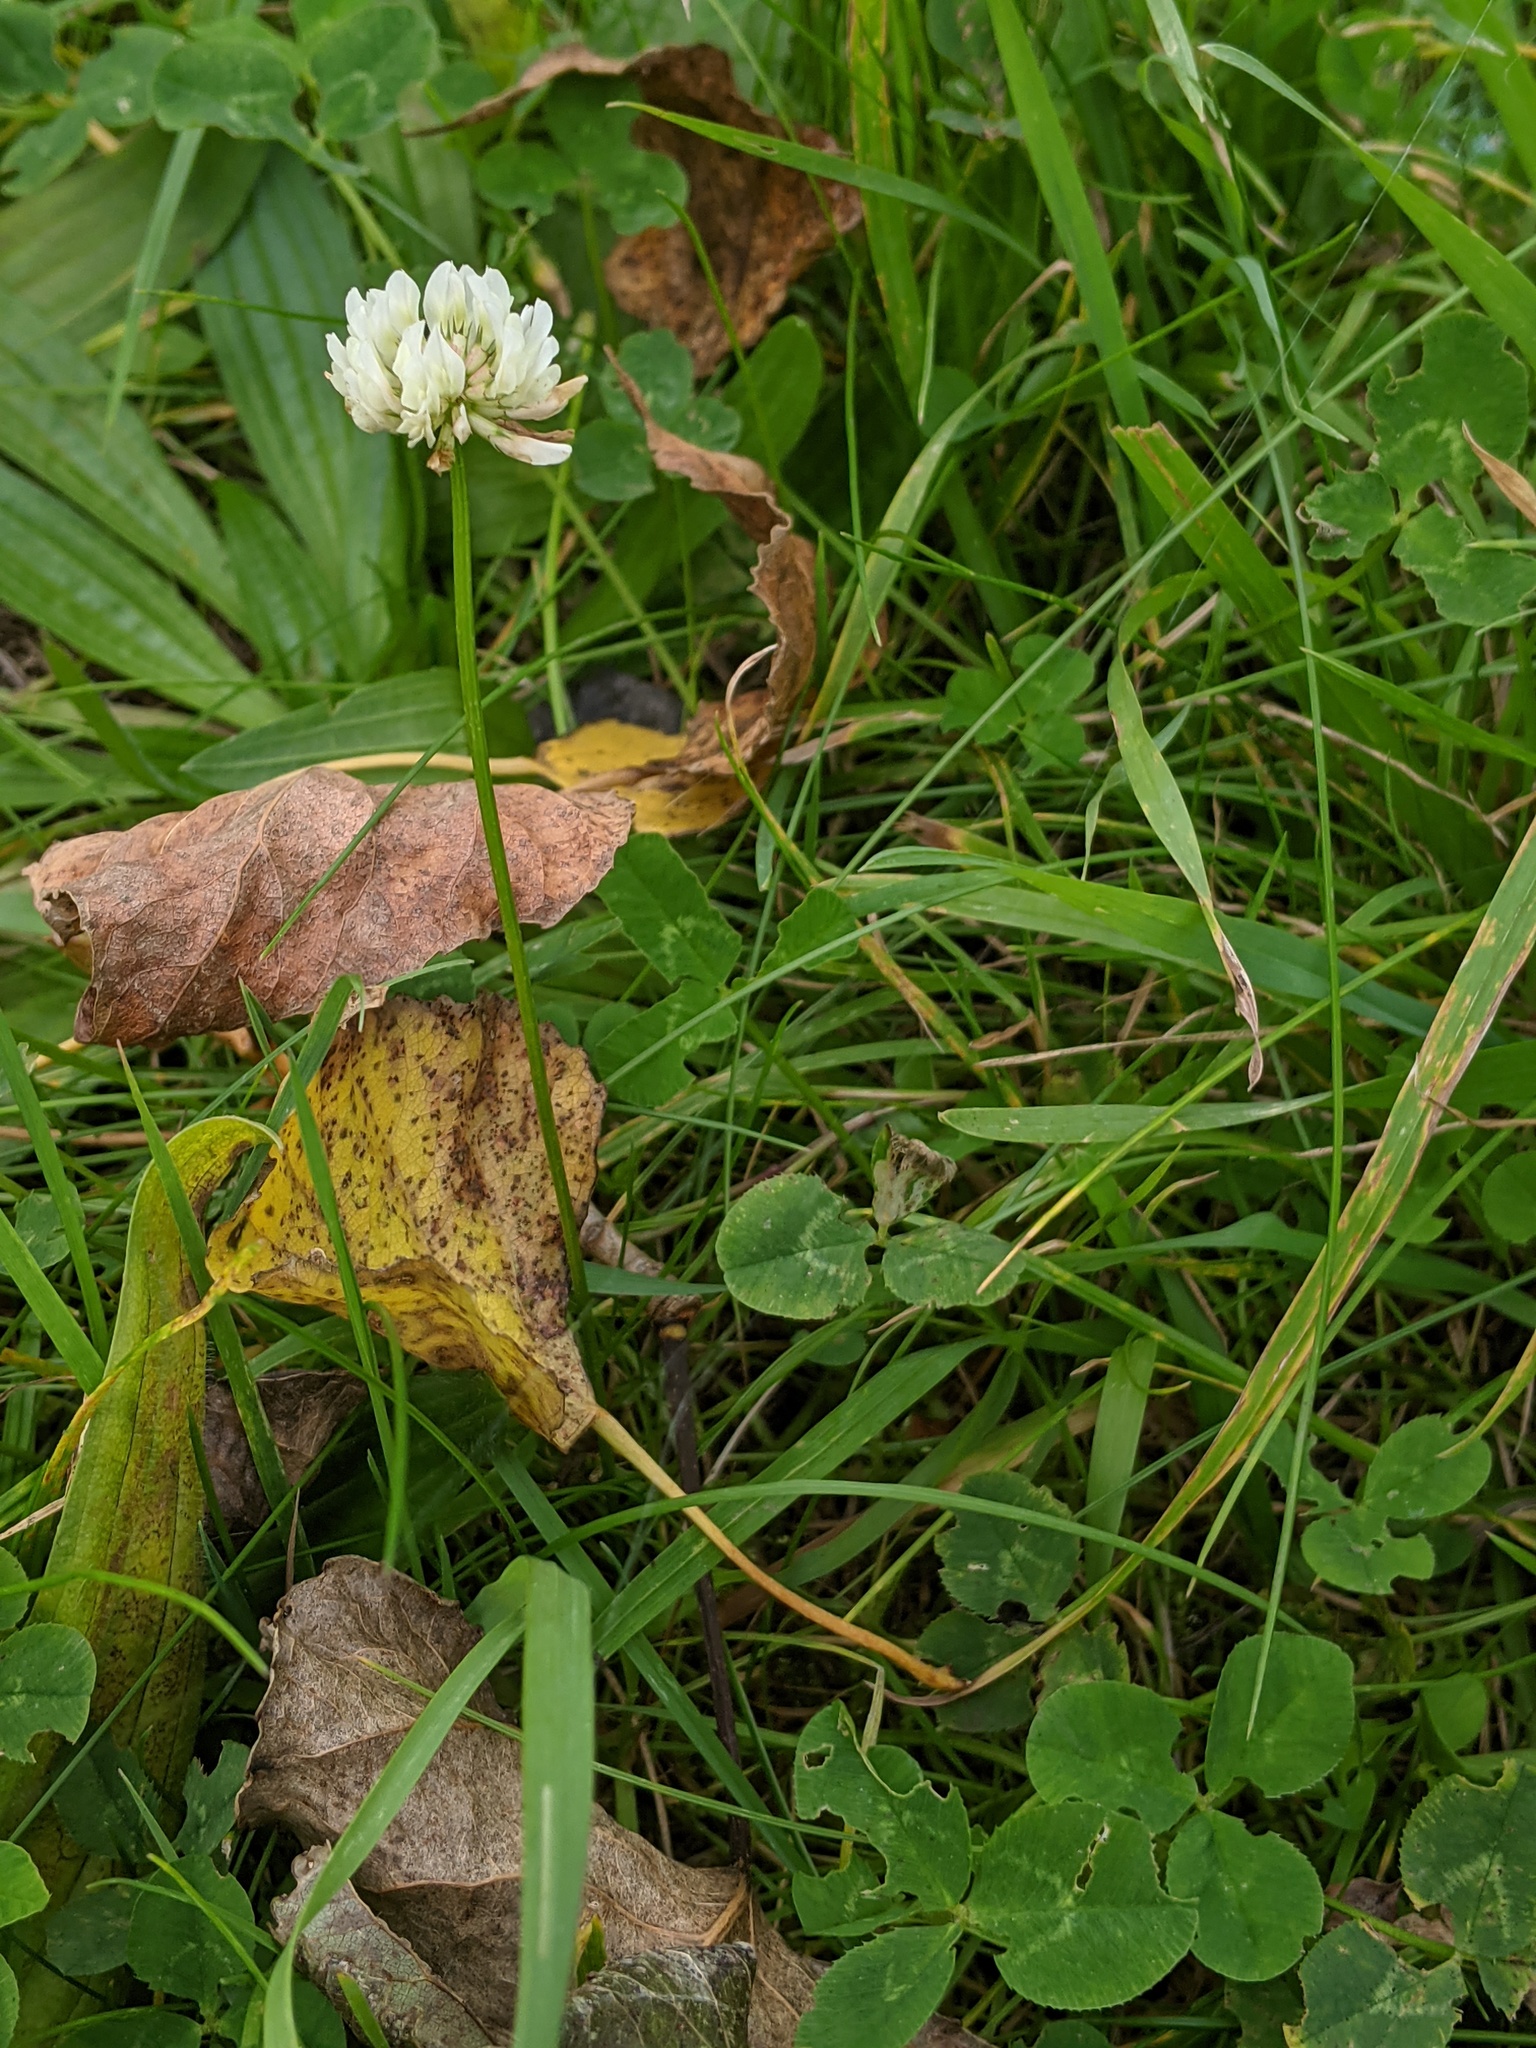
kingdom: Plantae
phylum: Tracheophyta
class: Magnoliopsida
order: Fabales
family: Fabaceae
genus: Trifolium
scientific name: Trifolium repens
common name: White clover
